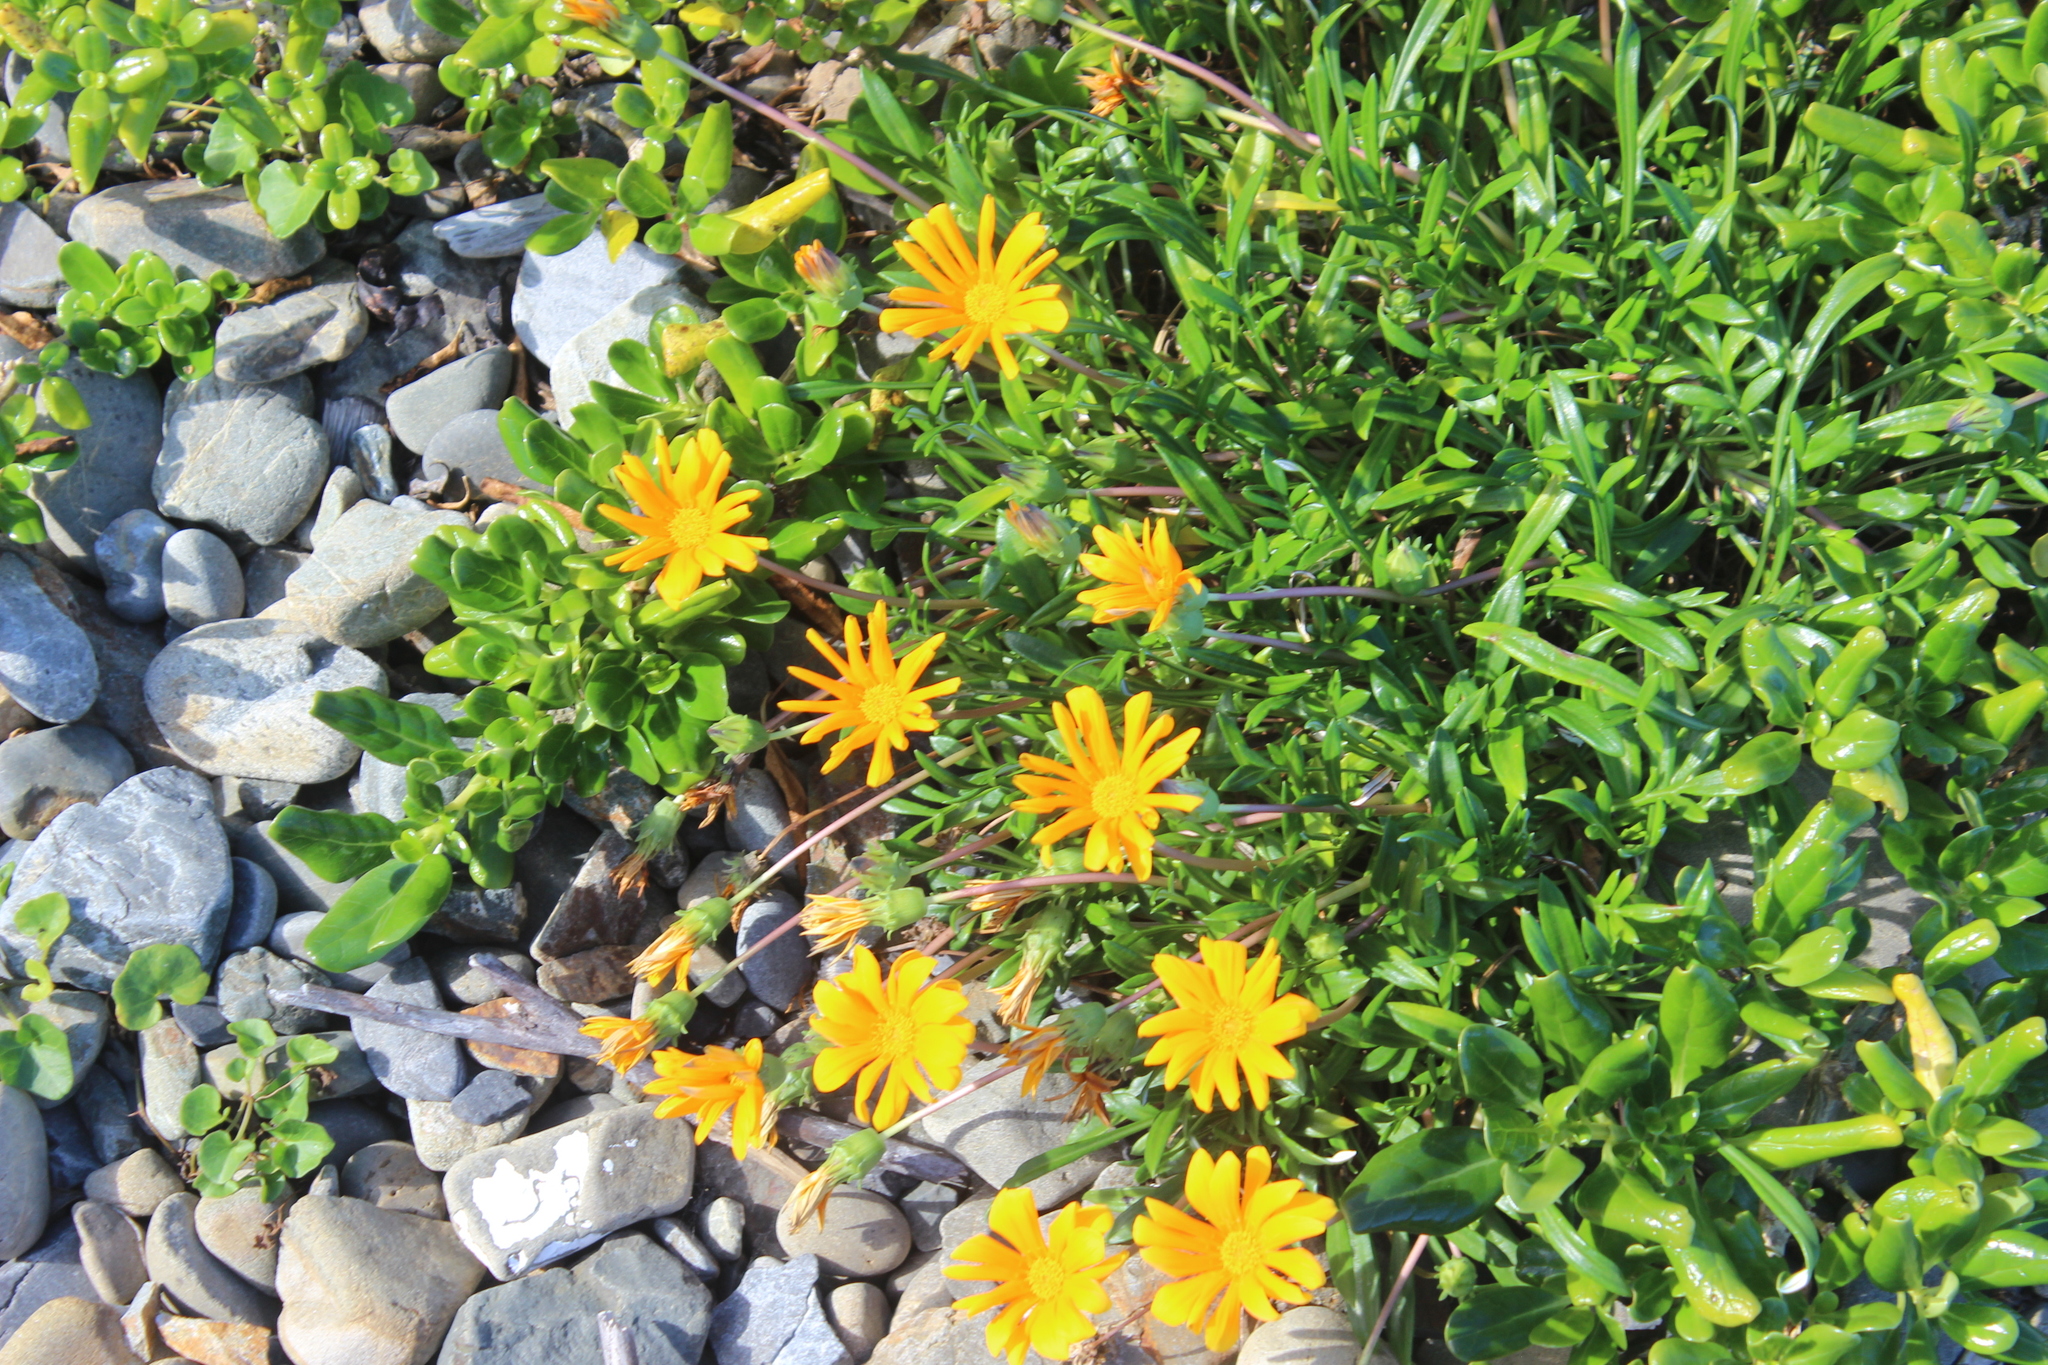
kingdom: Plantae
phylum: Tracheophyta
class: Magnoliopsida
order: Asterales
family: Asteraceae
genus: Gazania
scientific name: Gazania splendens
